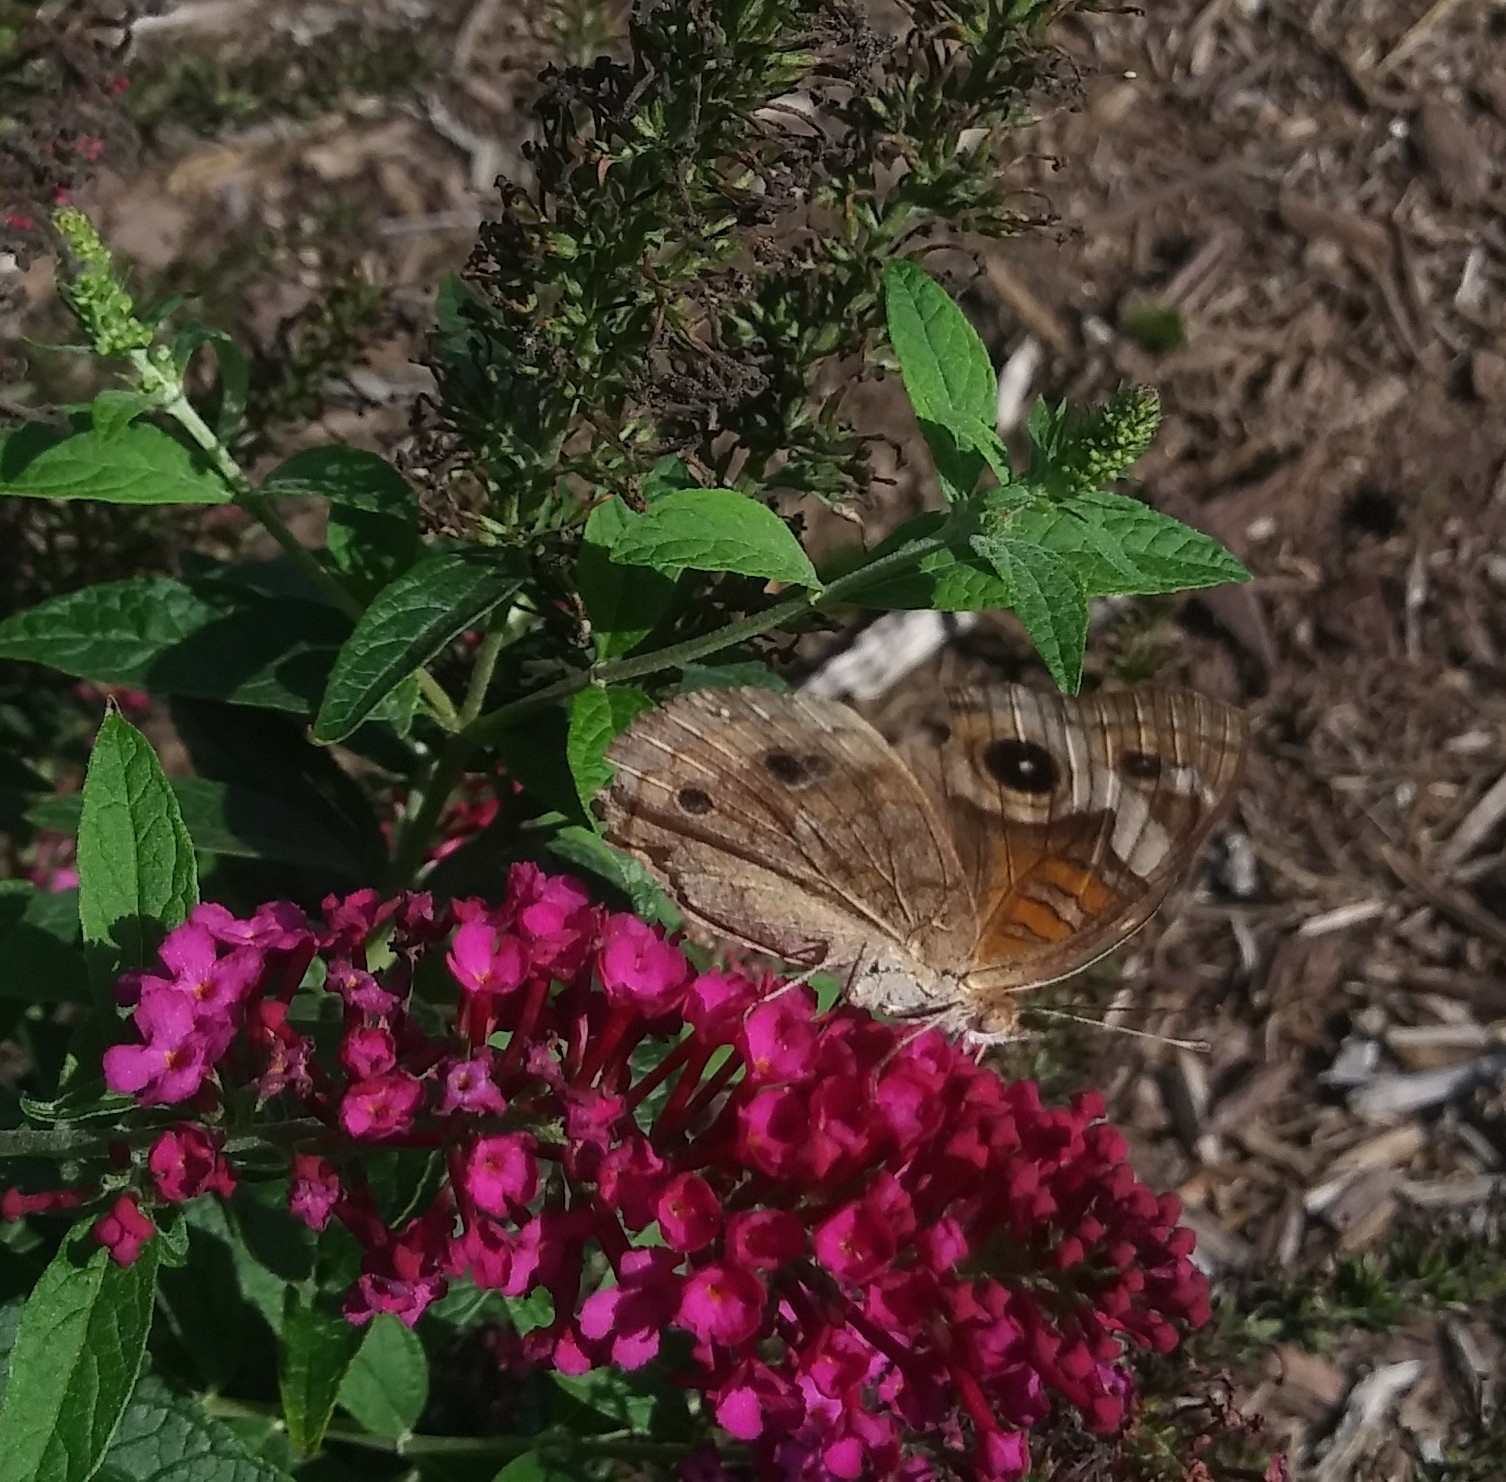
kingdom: Animalia
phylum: Arthropoda
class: Insecta
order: Lepidoptera
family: Nymphalidae
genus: Junonia
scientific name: Junonia coenia
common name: Common buckeye
